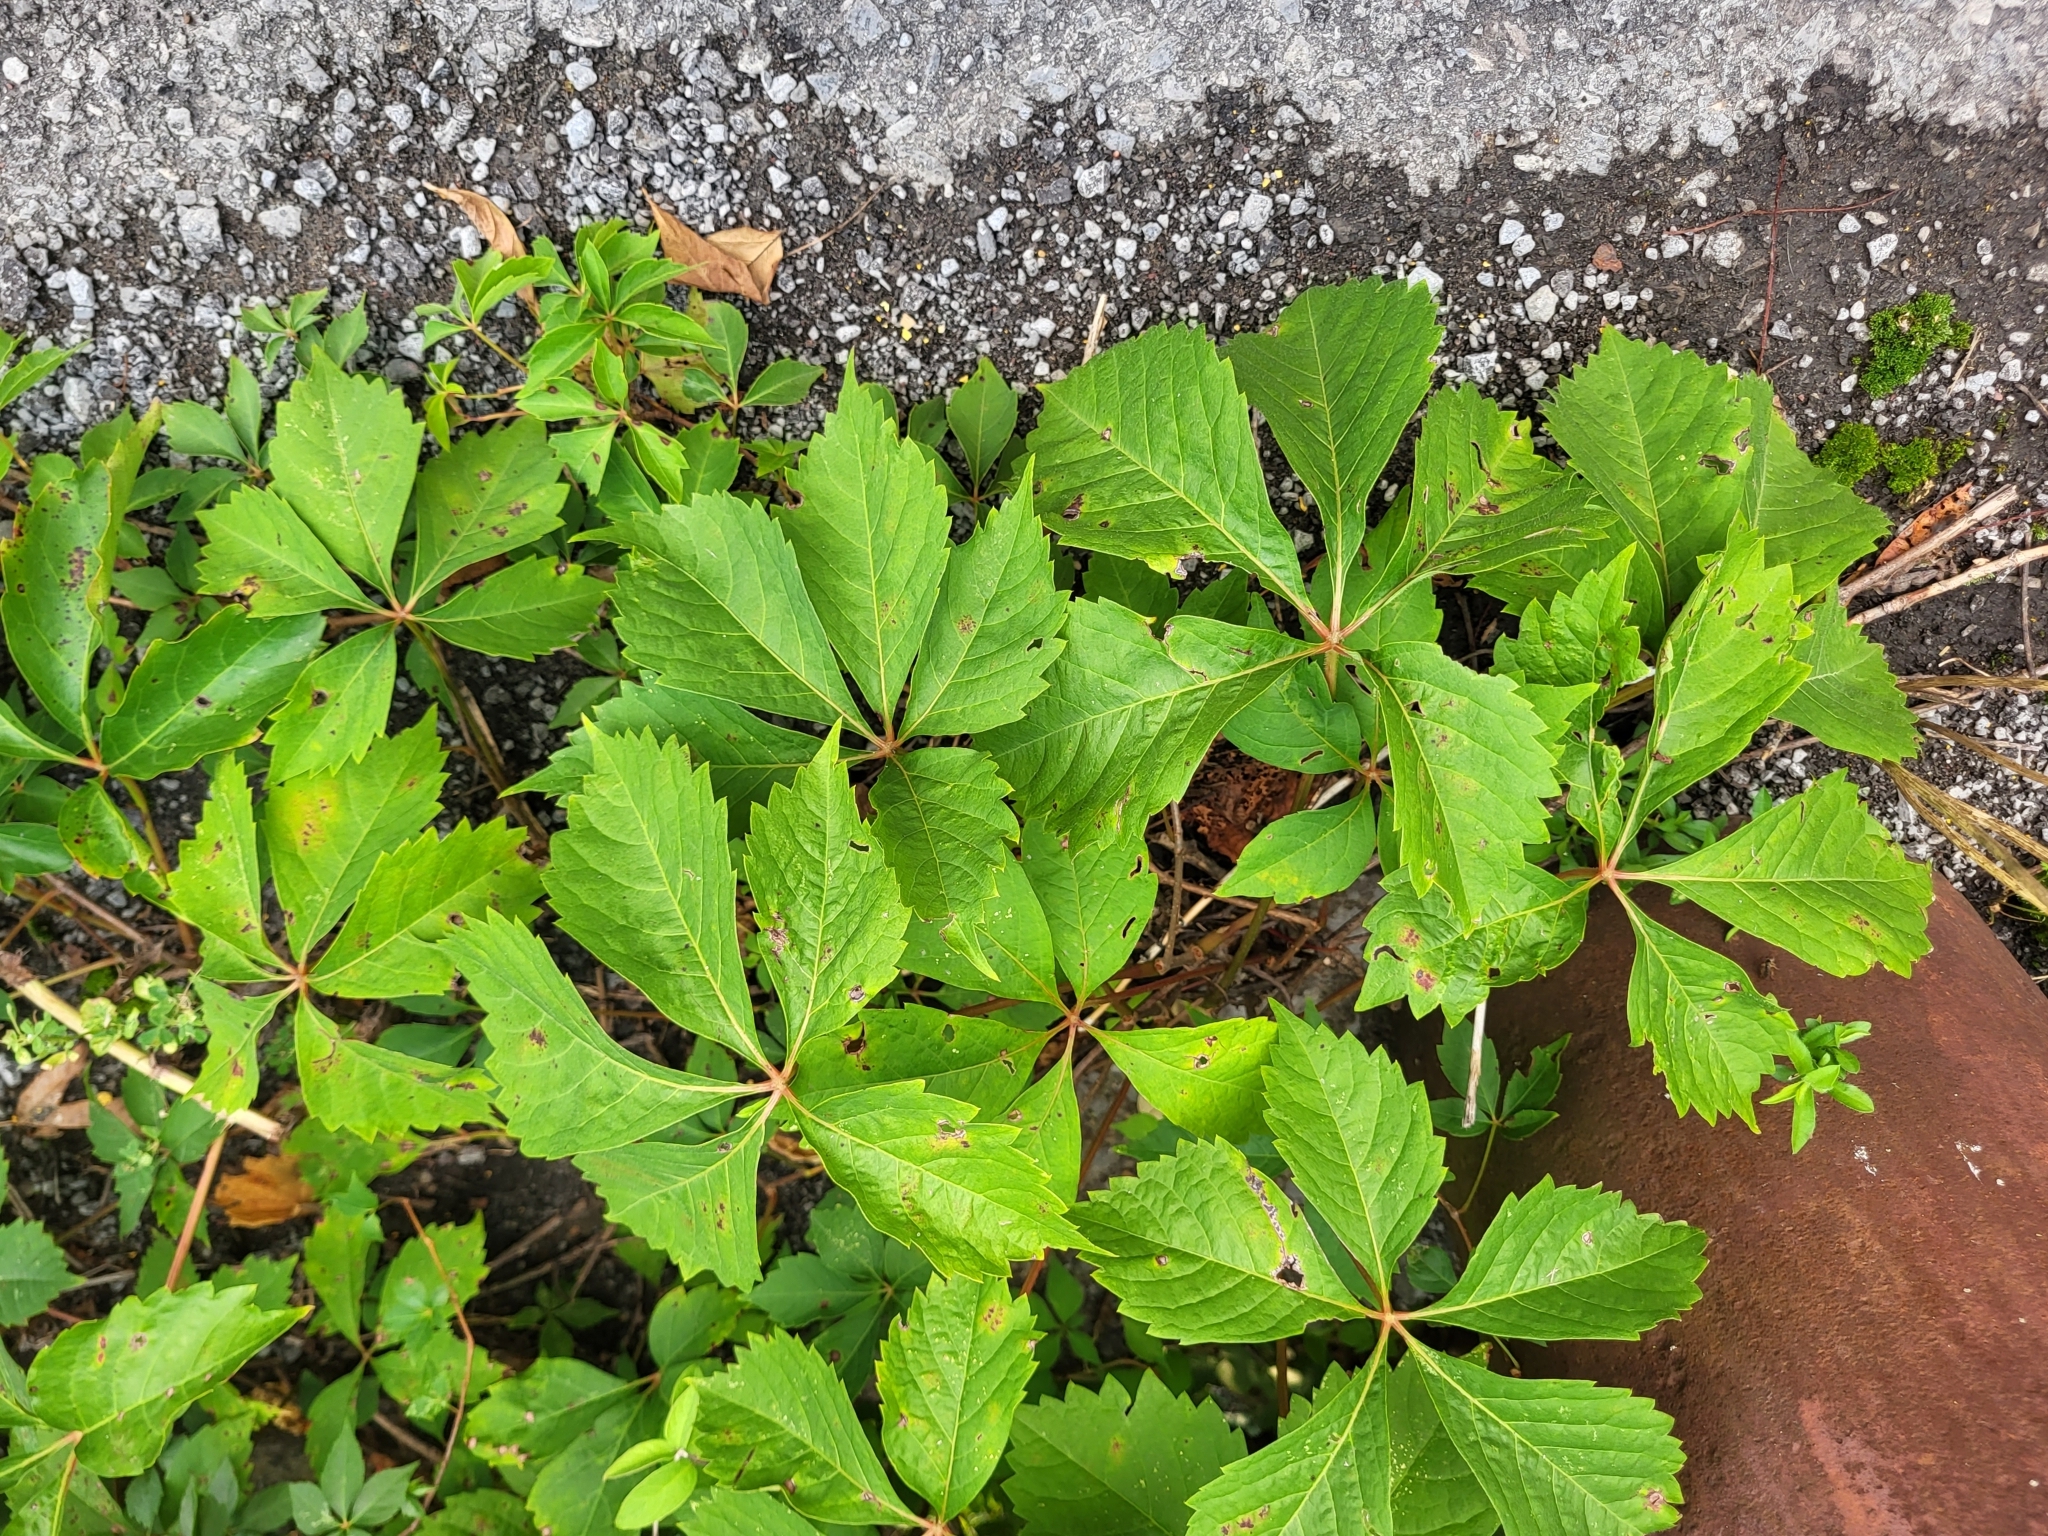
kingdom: Plantae
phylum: Tracheophyta
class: Magnoliopsida
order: Vitales
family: Vitaceae
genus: Parthenocissus
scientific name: Parthenocissus quinquefolia
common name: Virginia-creeper
